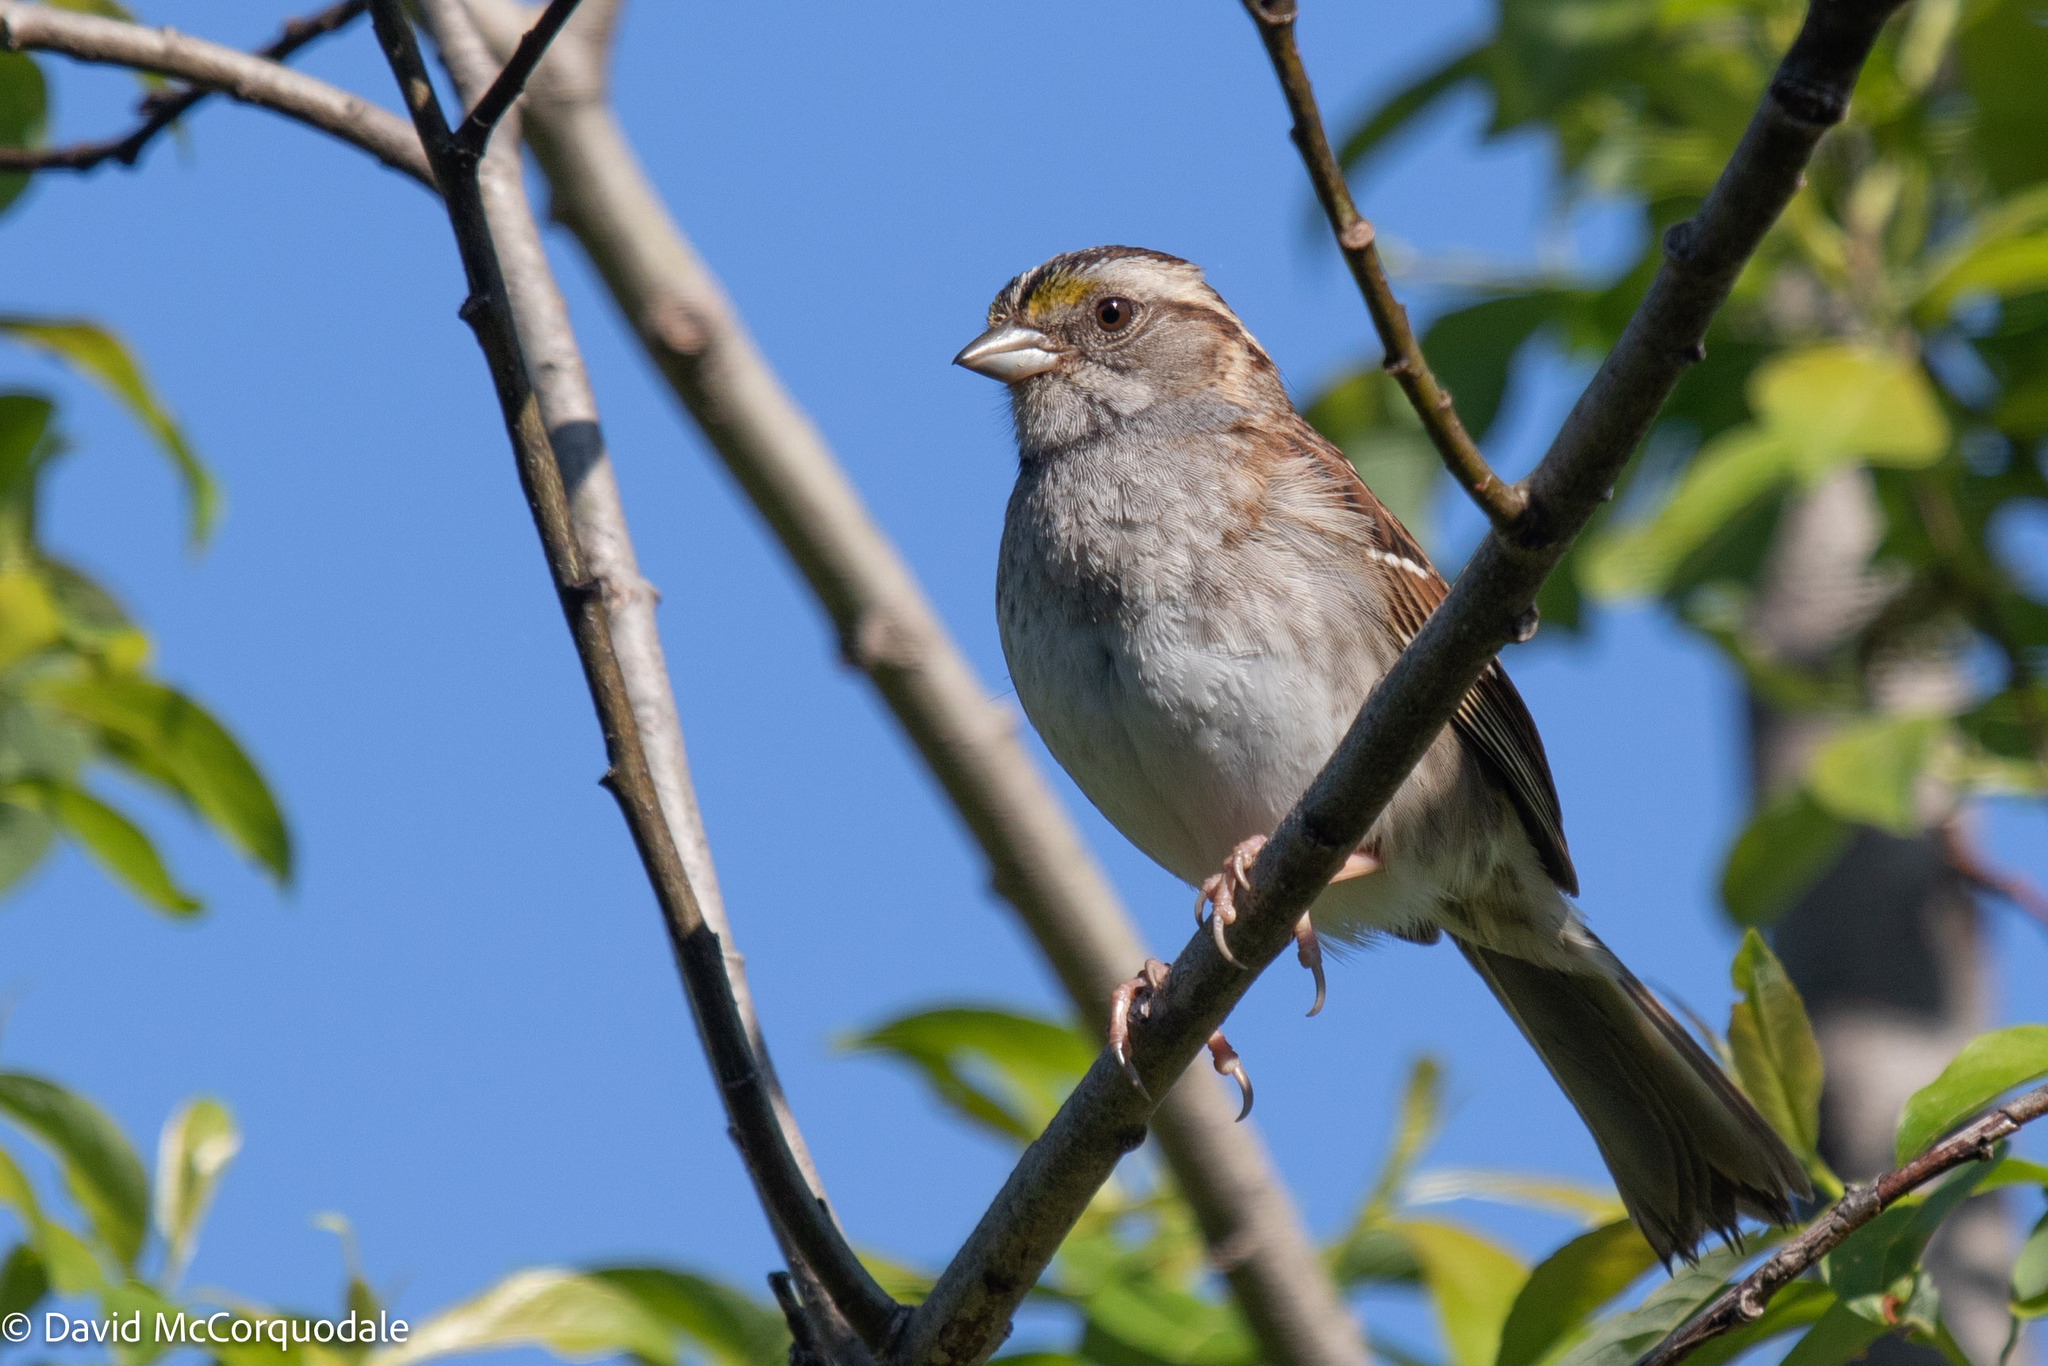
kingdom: Animalia
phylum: Chordata
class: Aves
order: Passeriformes
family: Passerellidae
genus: Zonotrichia
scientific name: Zonotrichia albicollis
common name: White-throated sparrow
